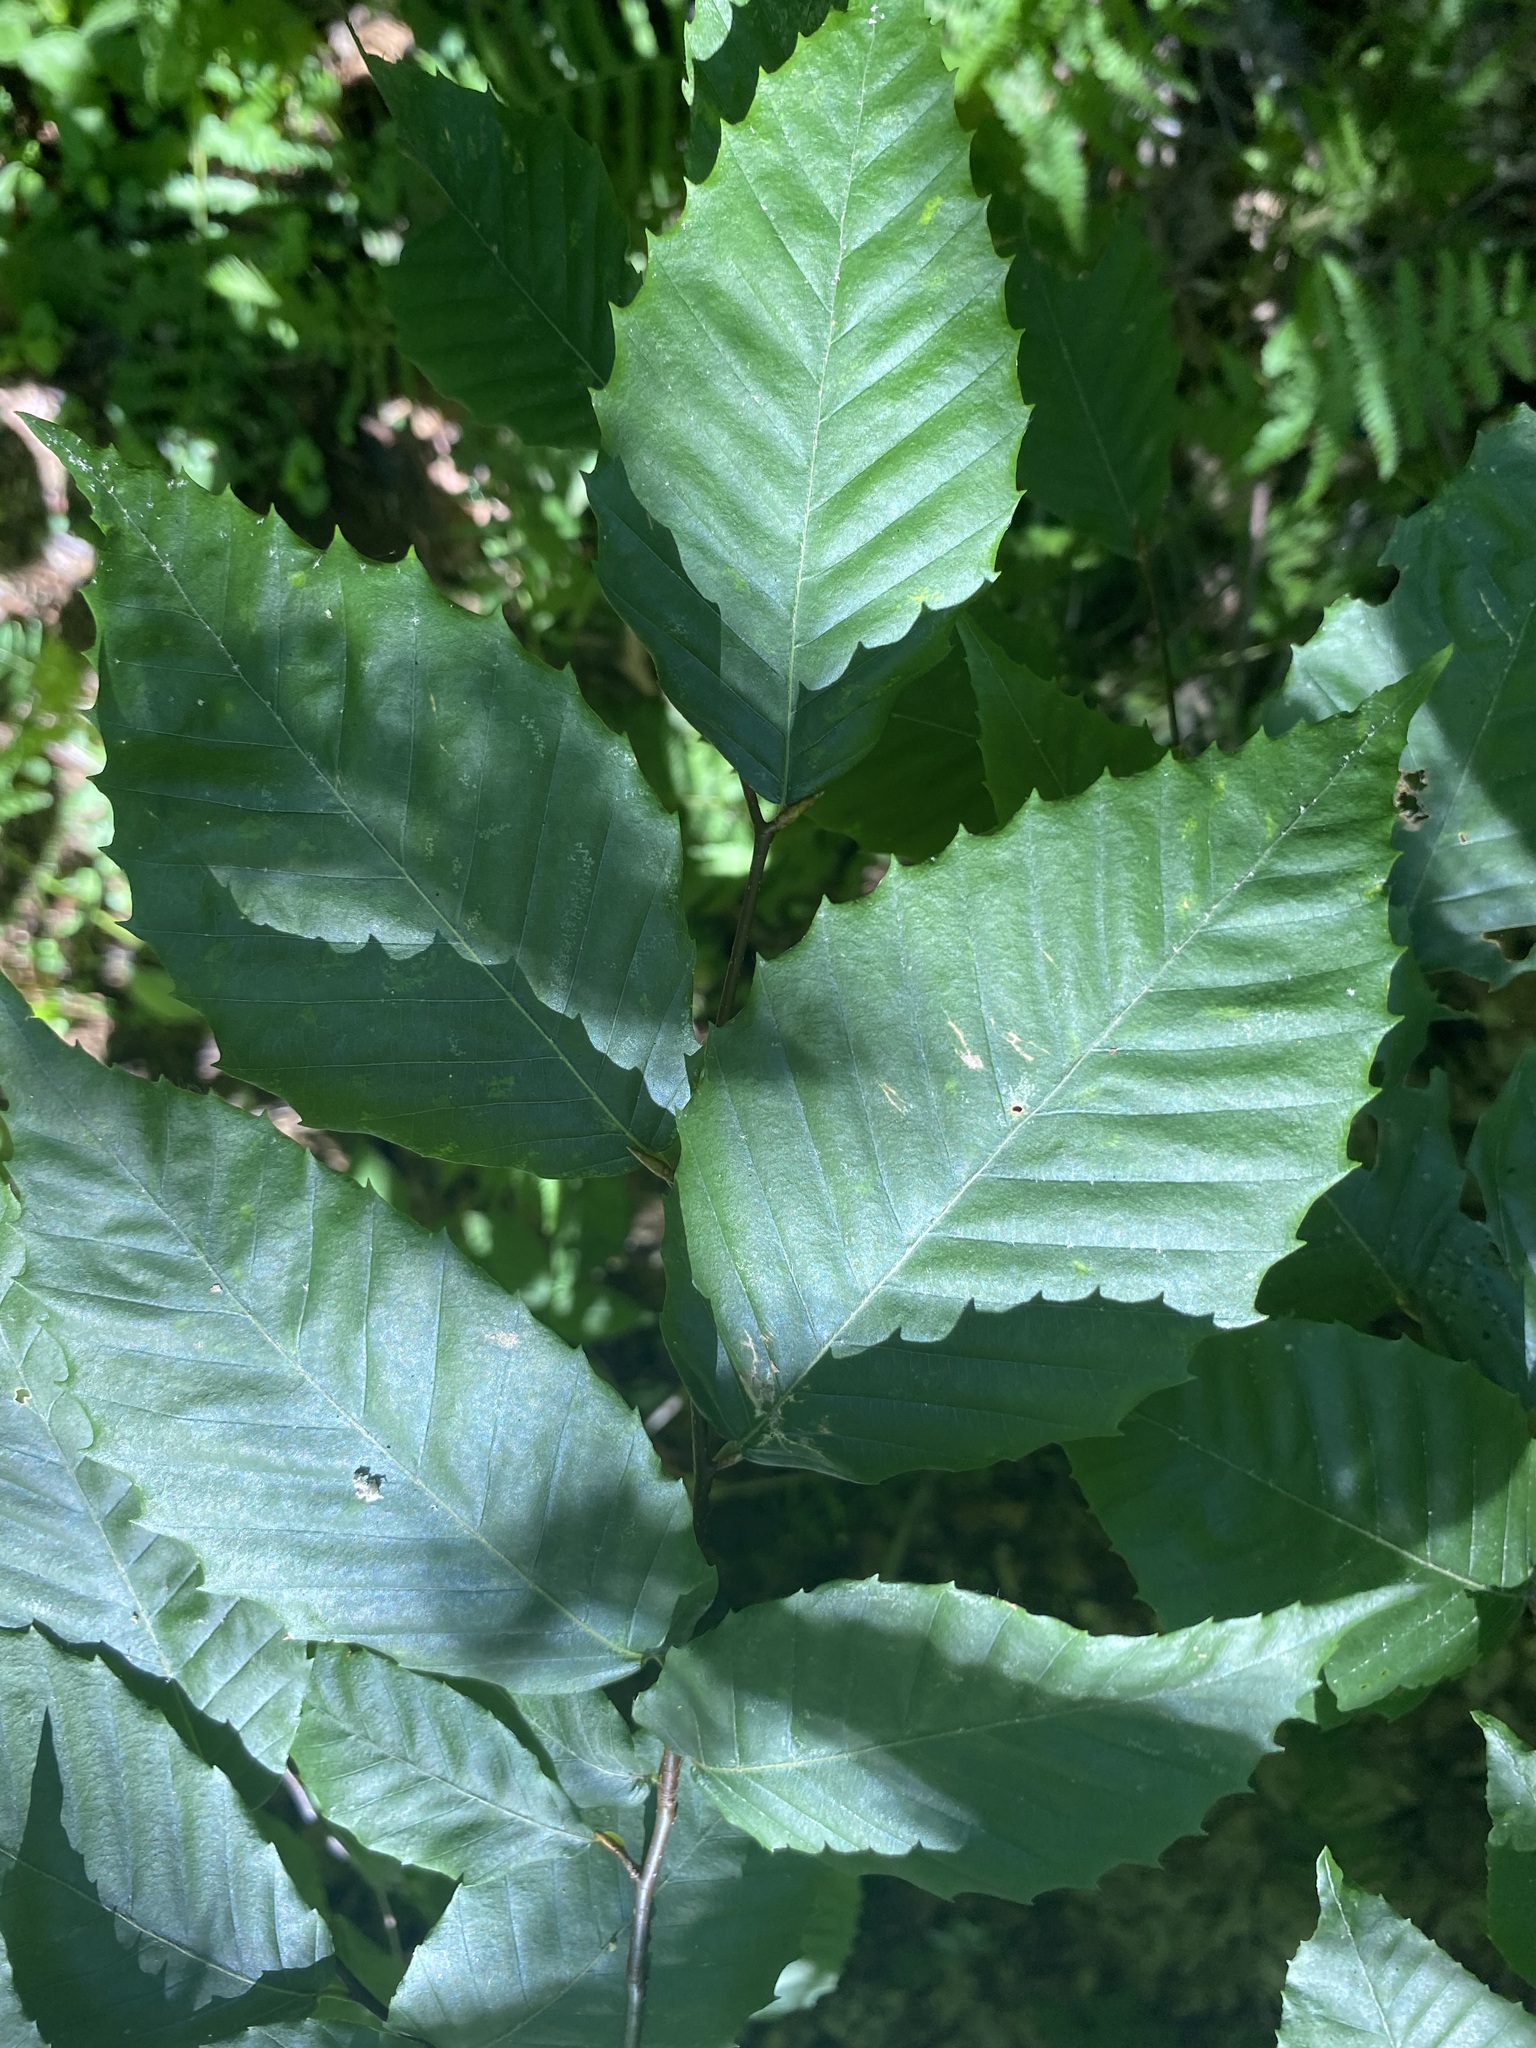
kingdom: Plantae
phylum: Tracheophyta
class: Magnoliopsida
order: Fagales
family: Fagaceae
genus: Fagus
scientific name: Fagus grandifolia
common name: American beech
